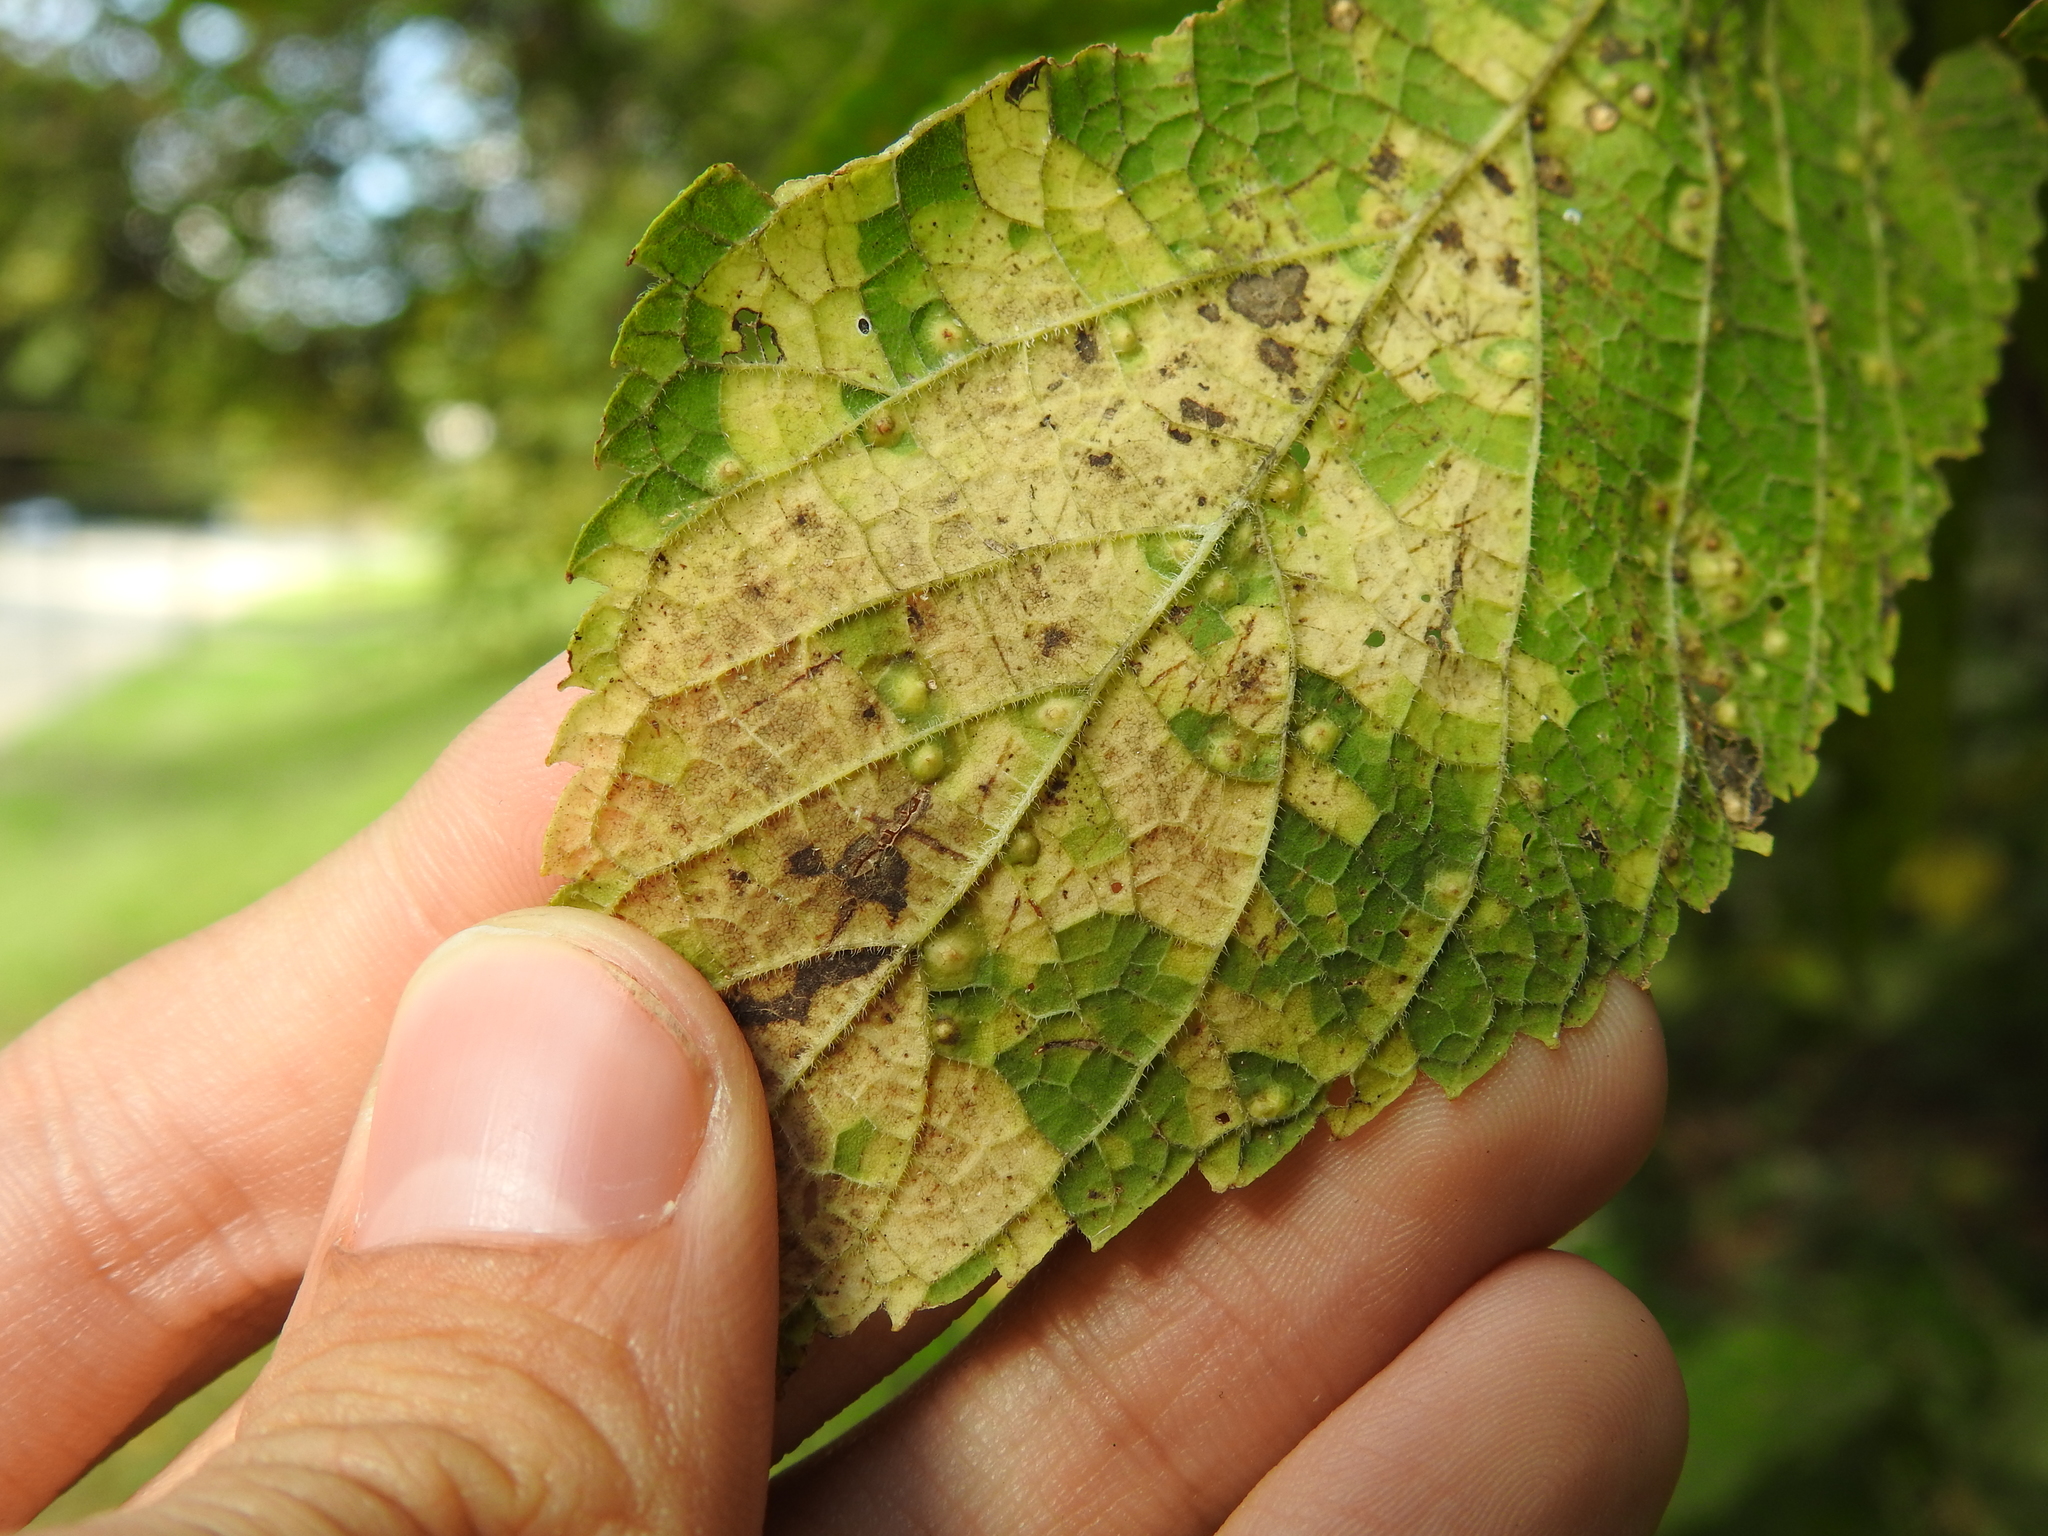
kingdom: Animalia
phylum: Arthropoda
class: Insecta
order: Hemiptera
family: Aphalaridae
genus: Pachypsylla
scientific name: Pachypsylla celtidisvesicula
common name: Hackberry blister gall psyllid
